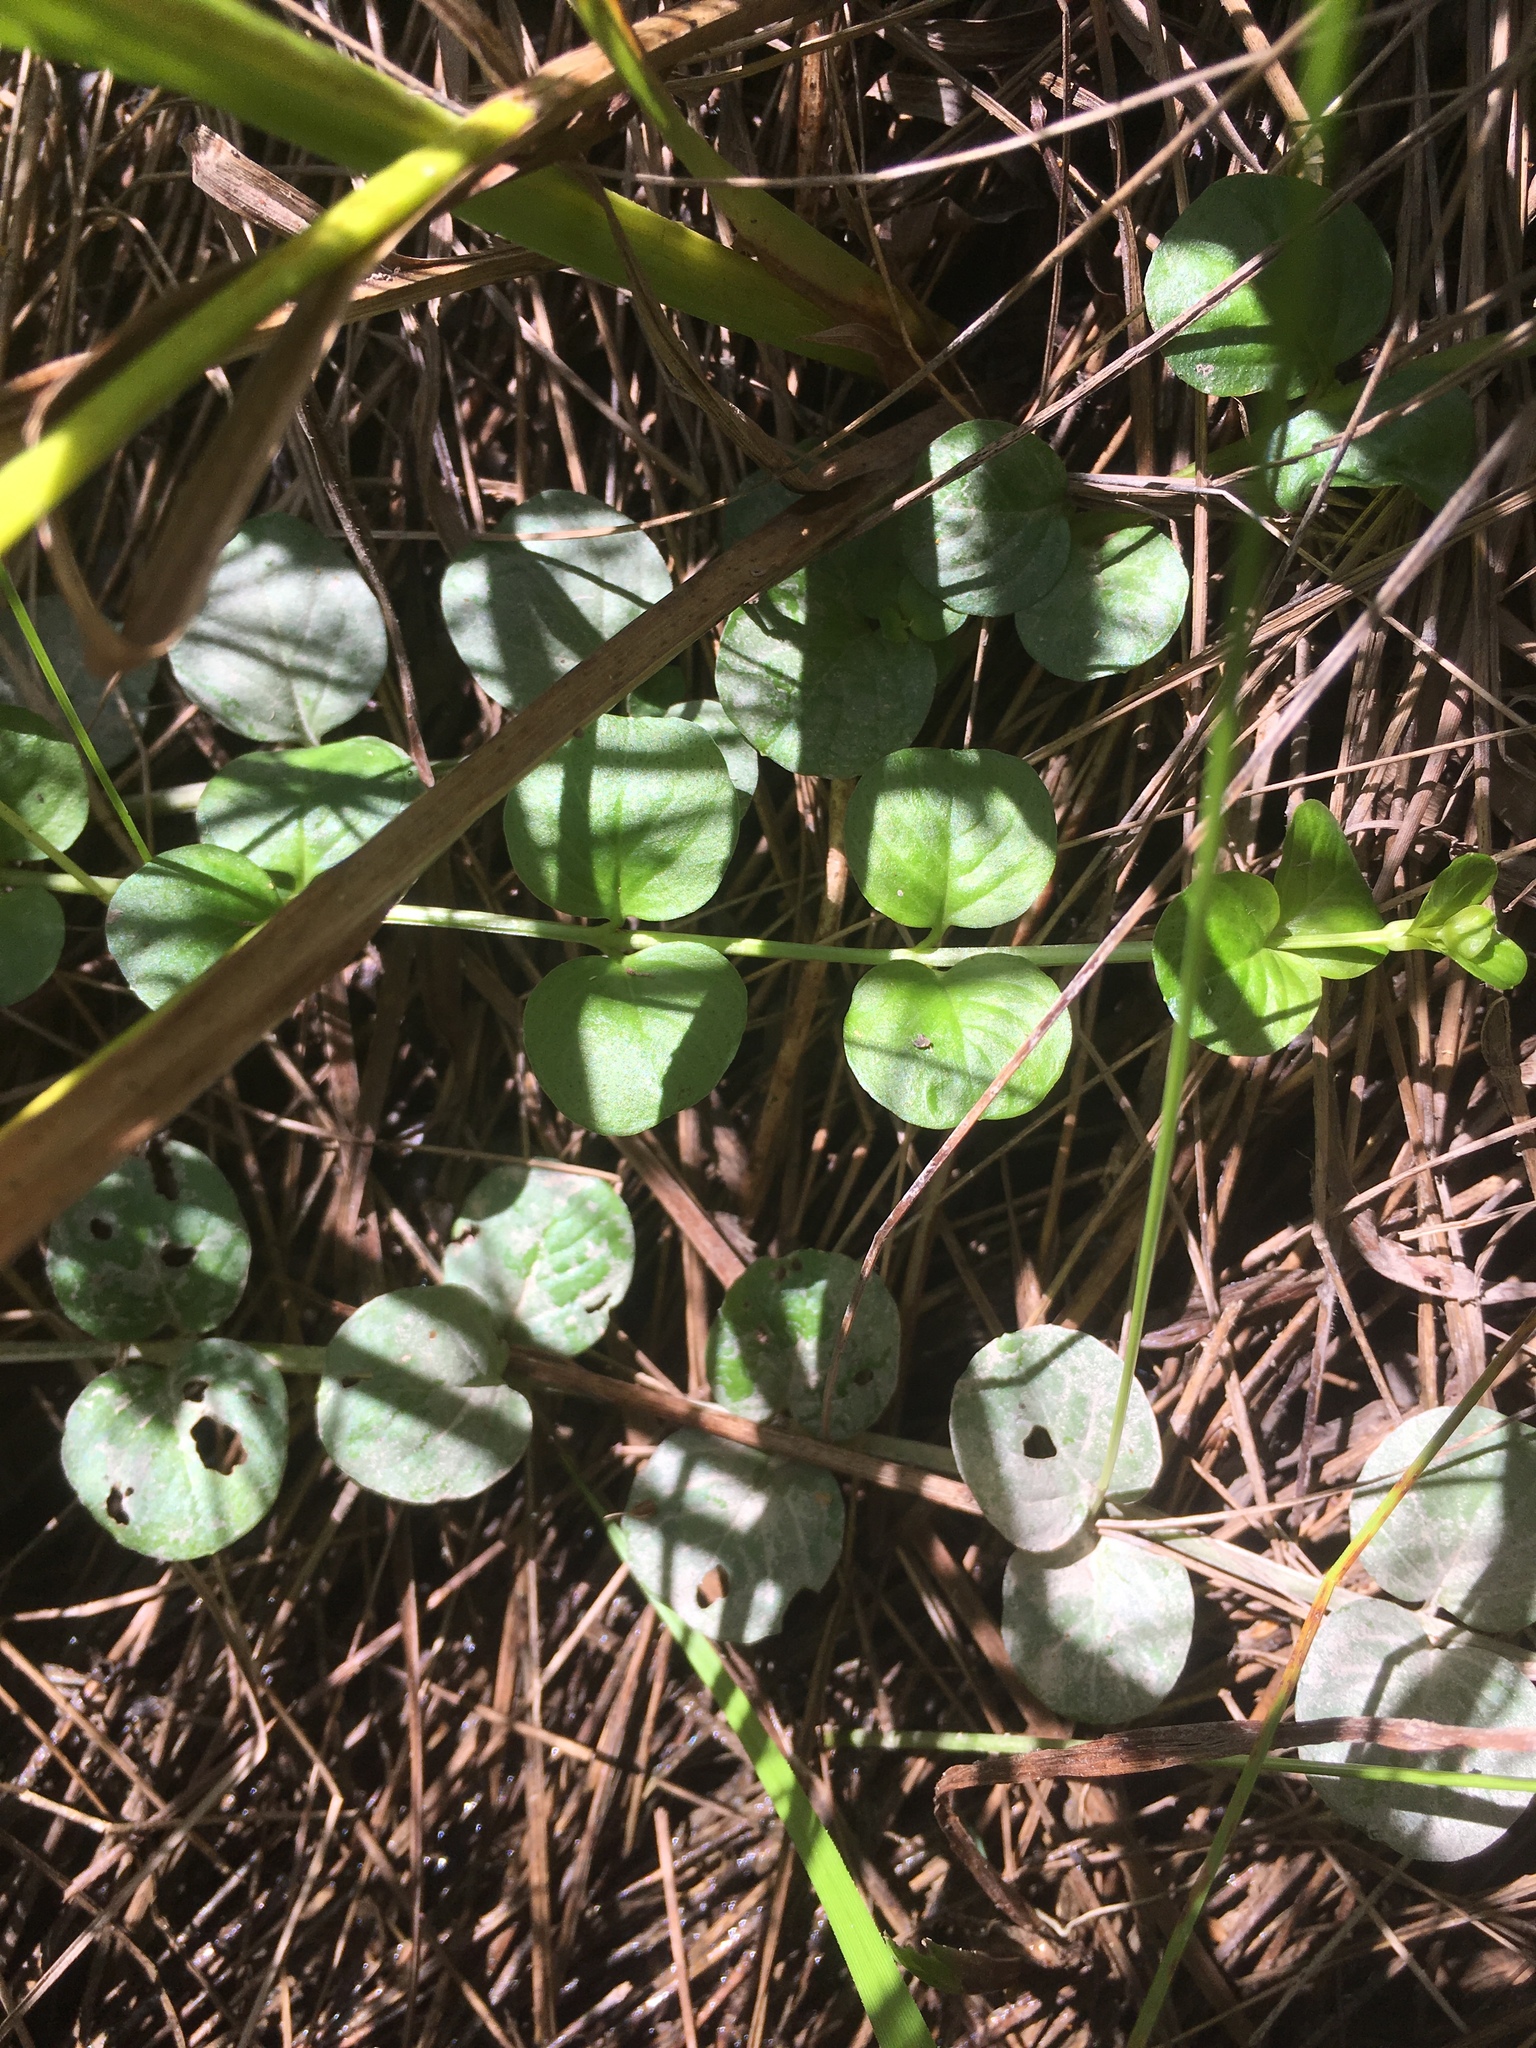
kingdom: Plantae
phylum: Tracheophyta
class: Magnoliopsida
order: Ericales
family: Primulaceae
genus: Lysimachia
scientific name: Lysimachia nummularia
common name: Moneywort
